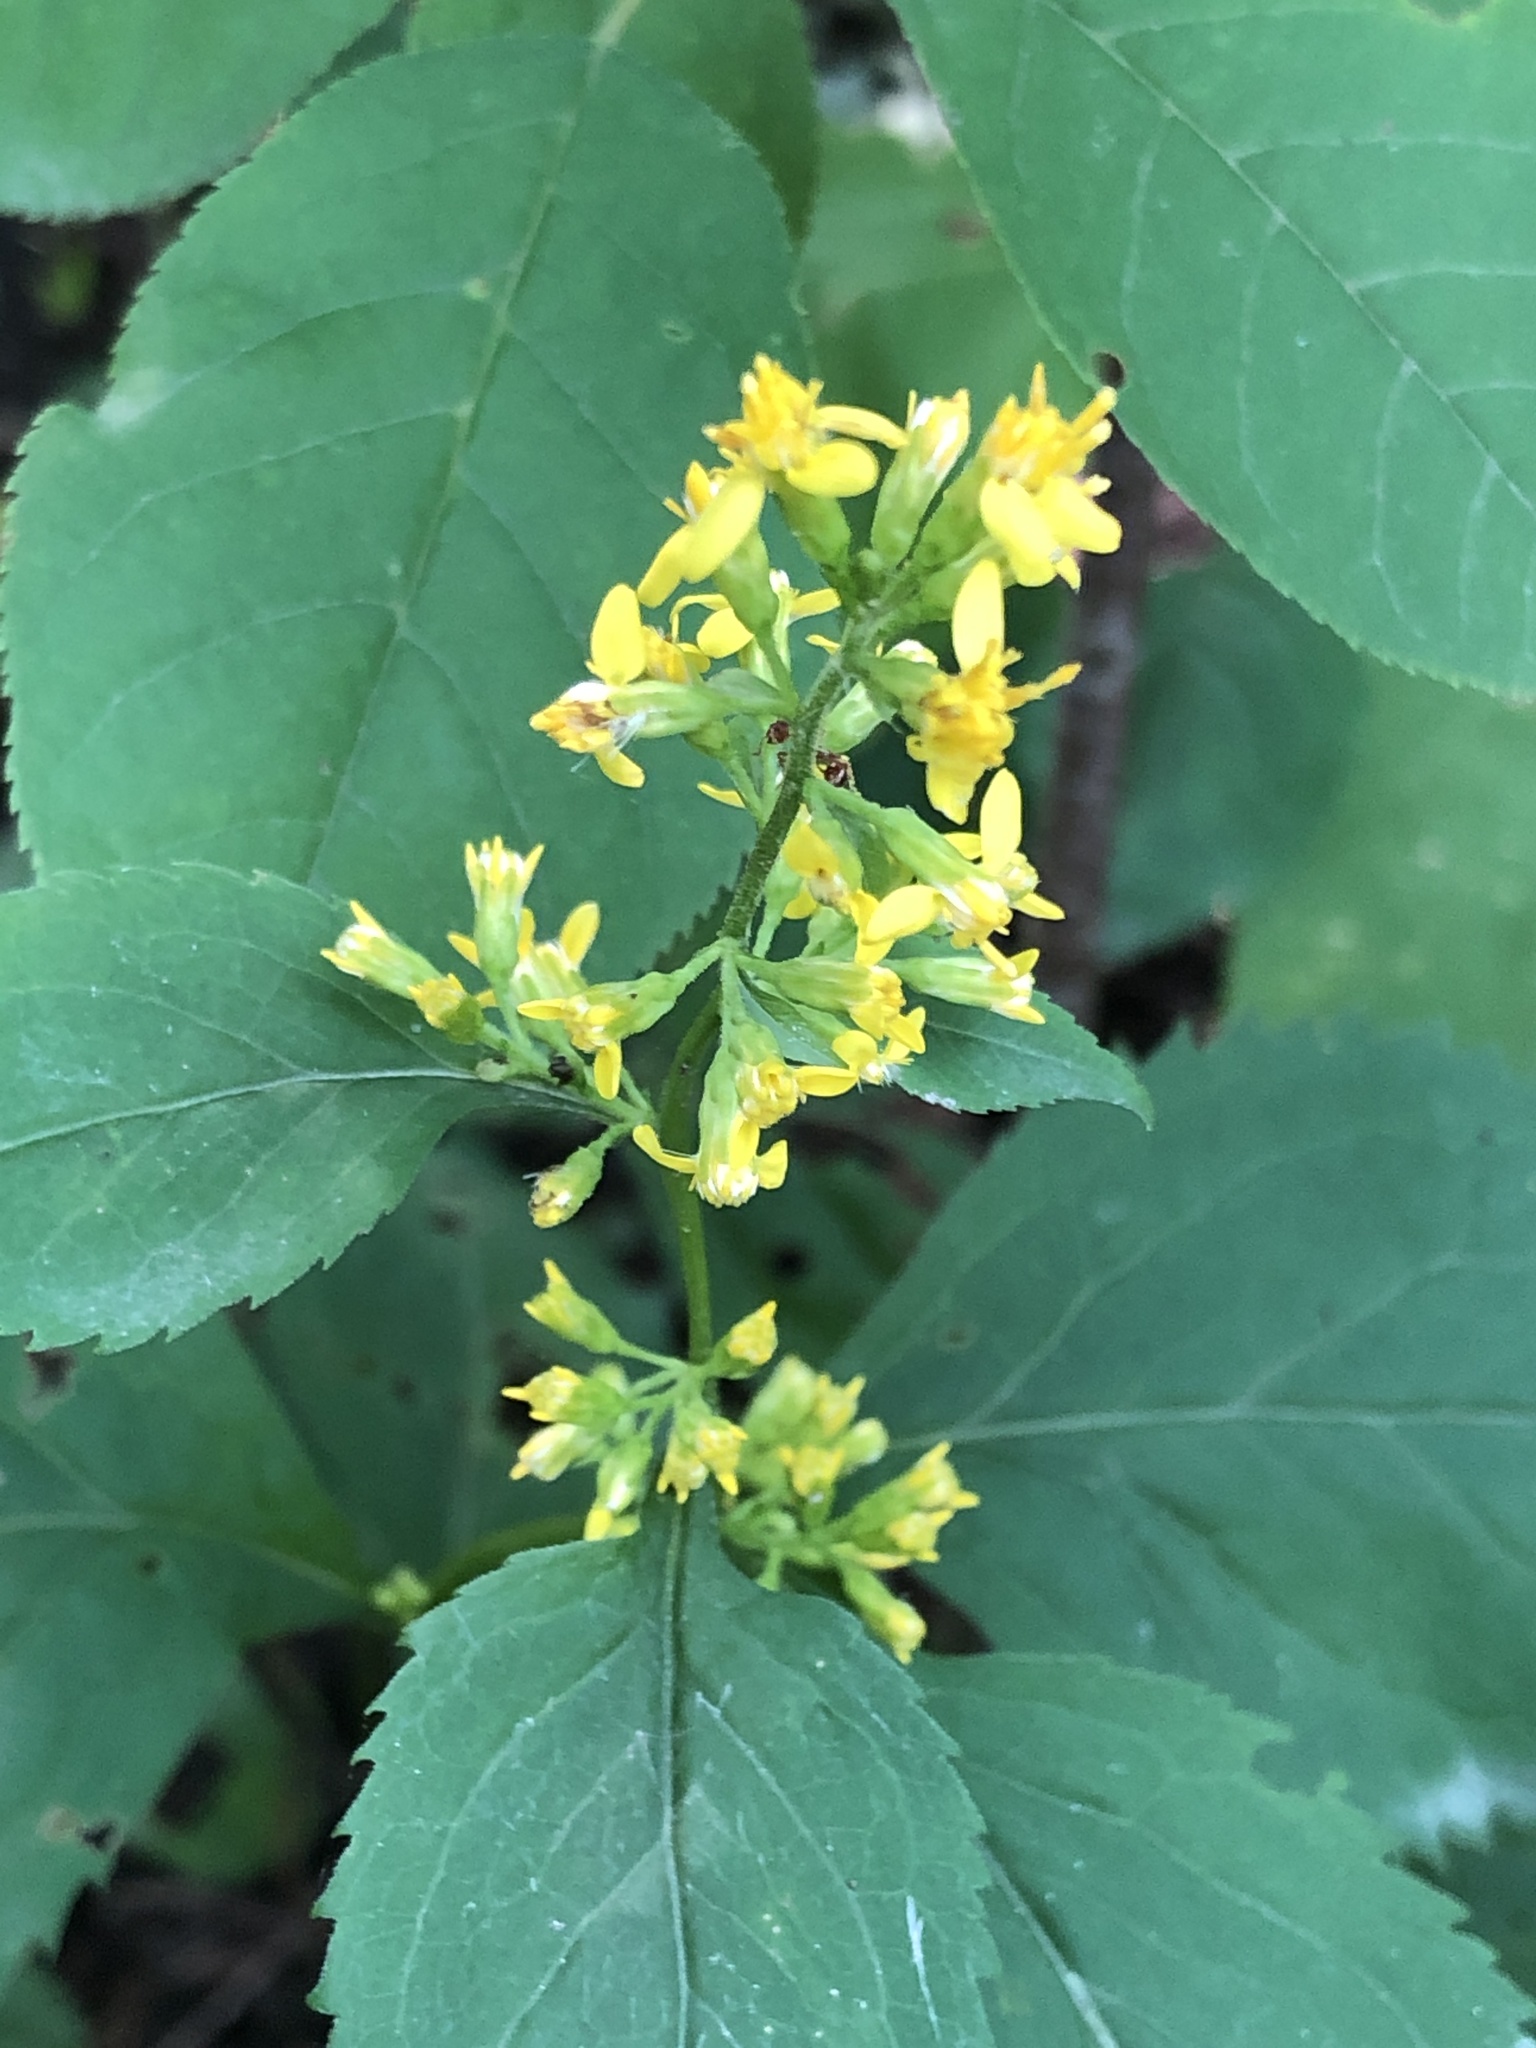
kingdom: Plantae
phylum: Tracheophyta
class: Magnoliopsida
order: Asterales
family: Asteraceae
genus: Solidago
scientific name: Solidago flexicaulis
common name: Zig-zag goldenrod
